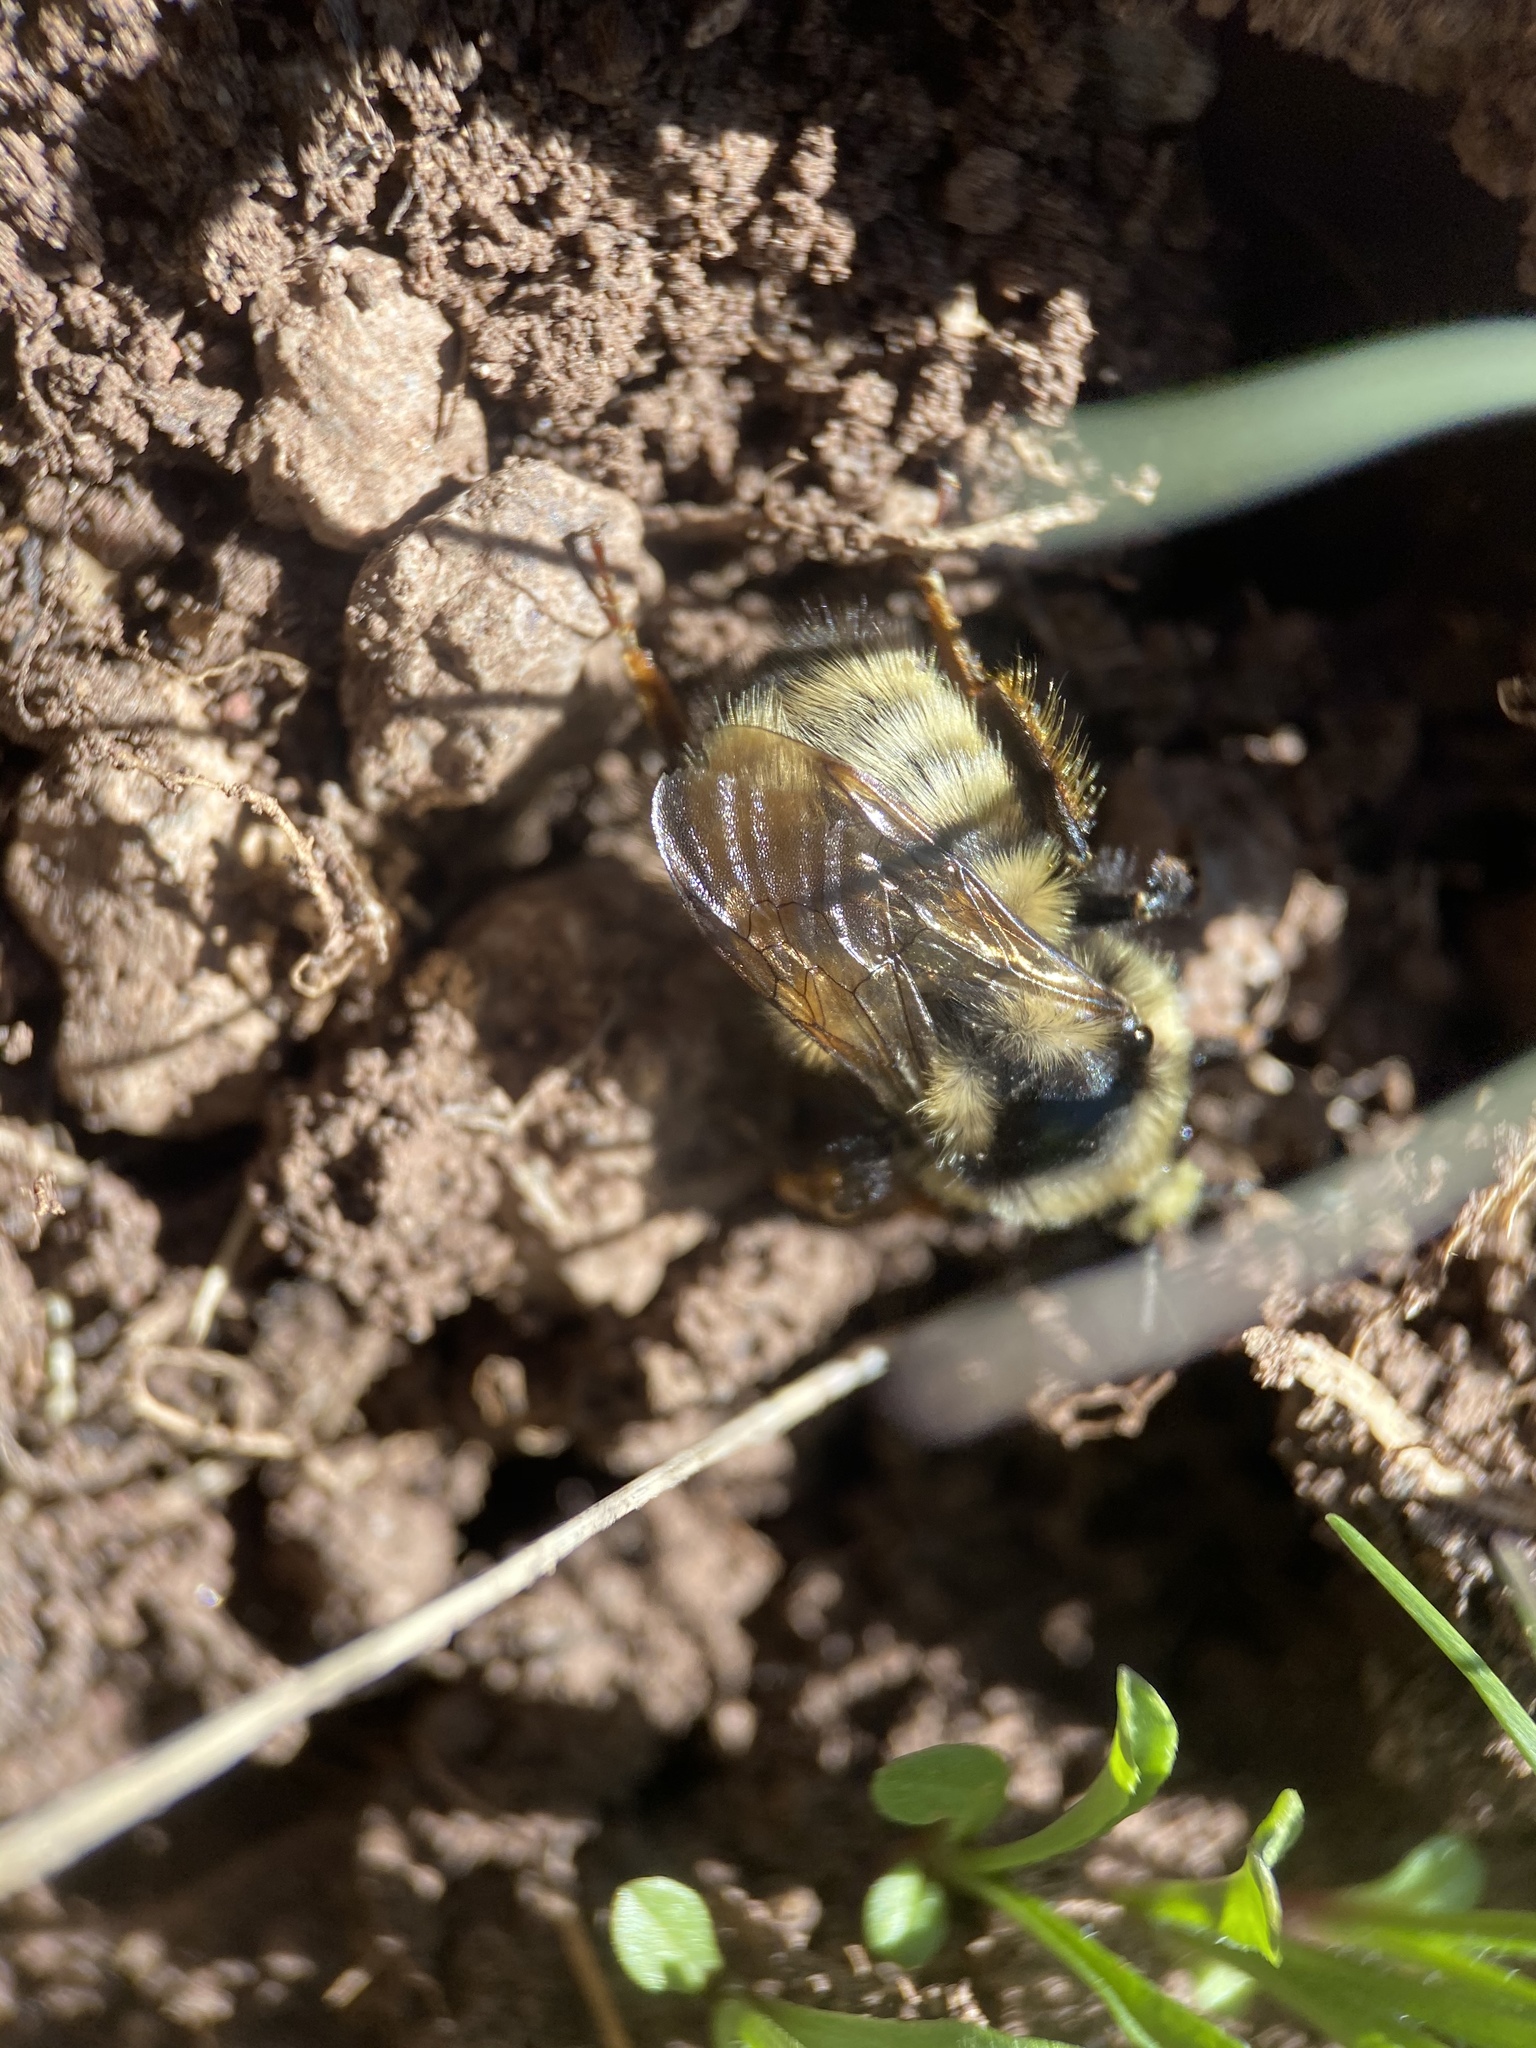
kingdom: Animalia
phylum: Arthropoda
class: Insecta
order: Hymenoptera
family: Apidae
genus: Bombus
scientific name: Bombus
